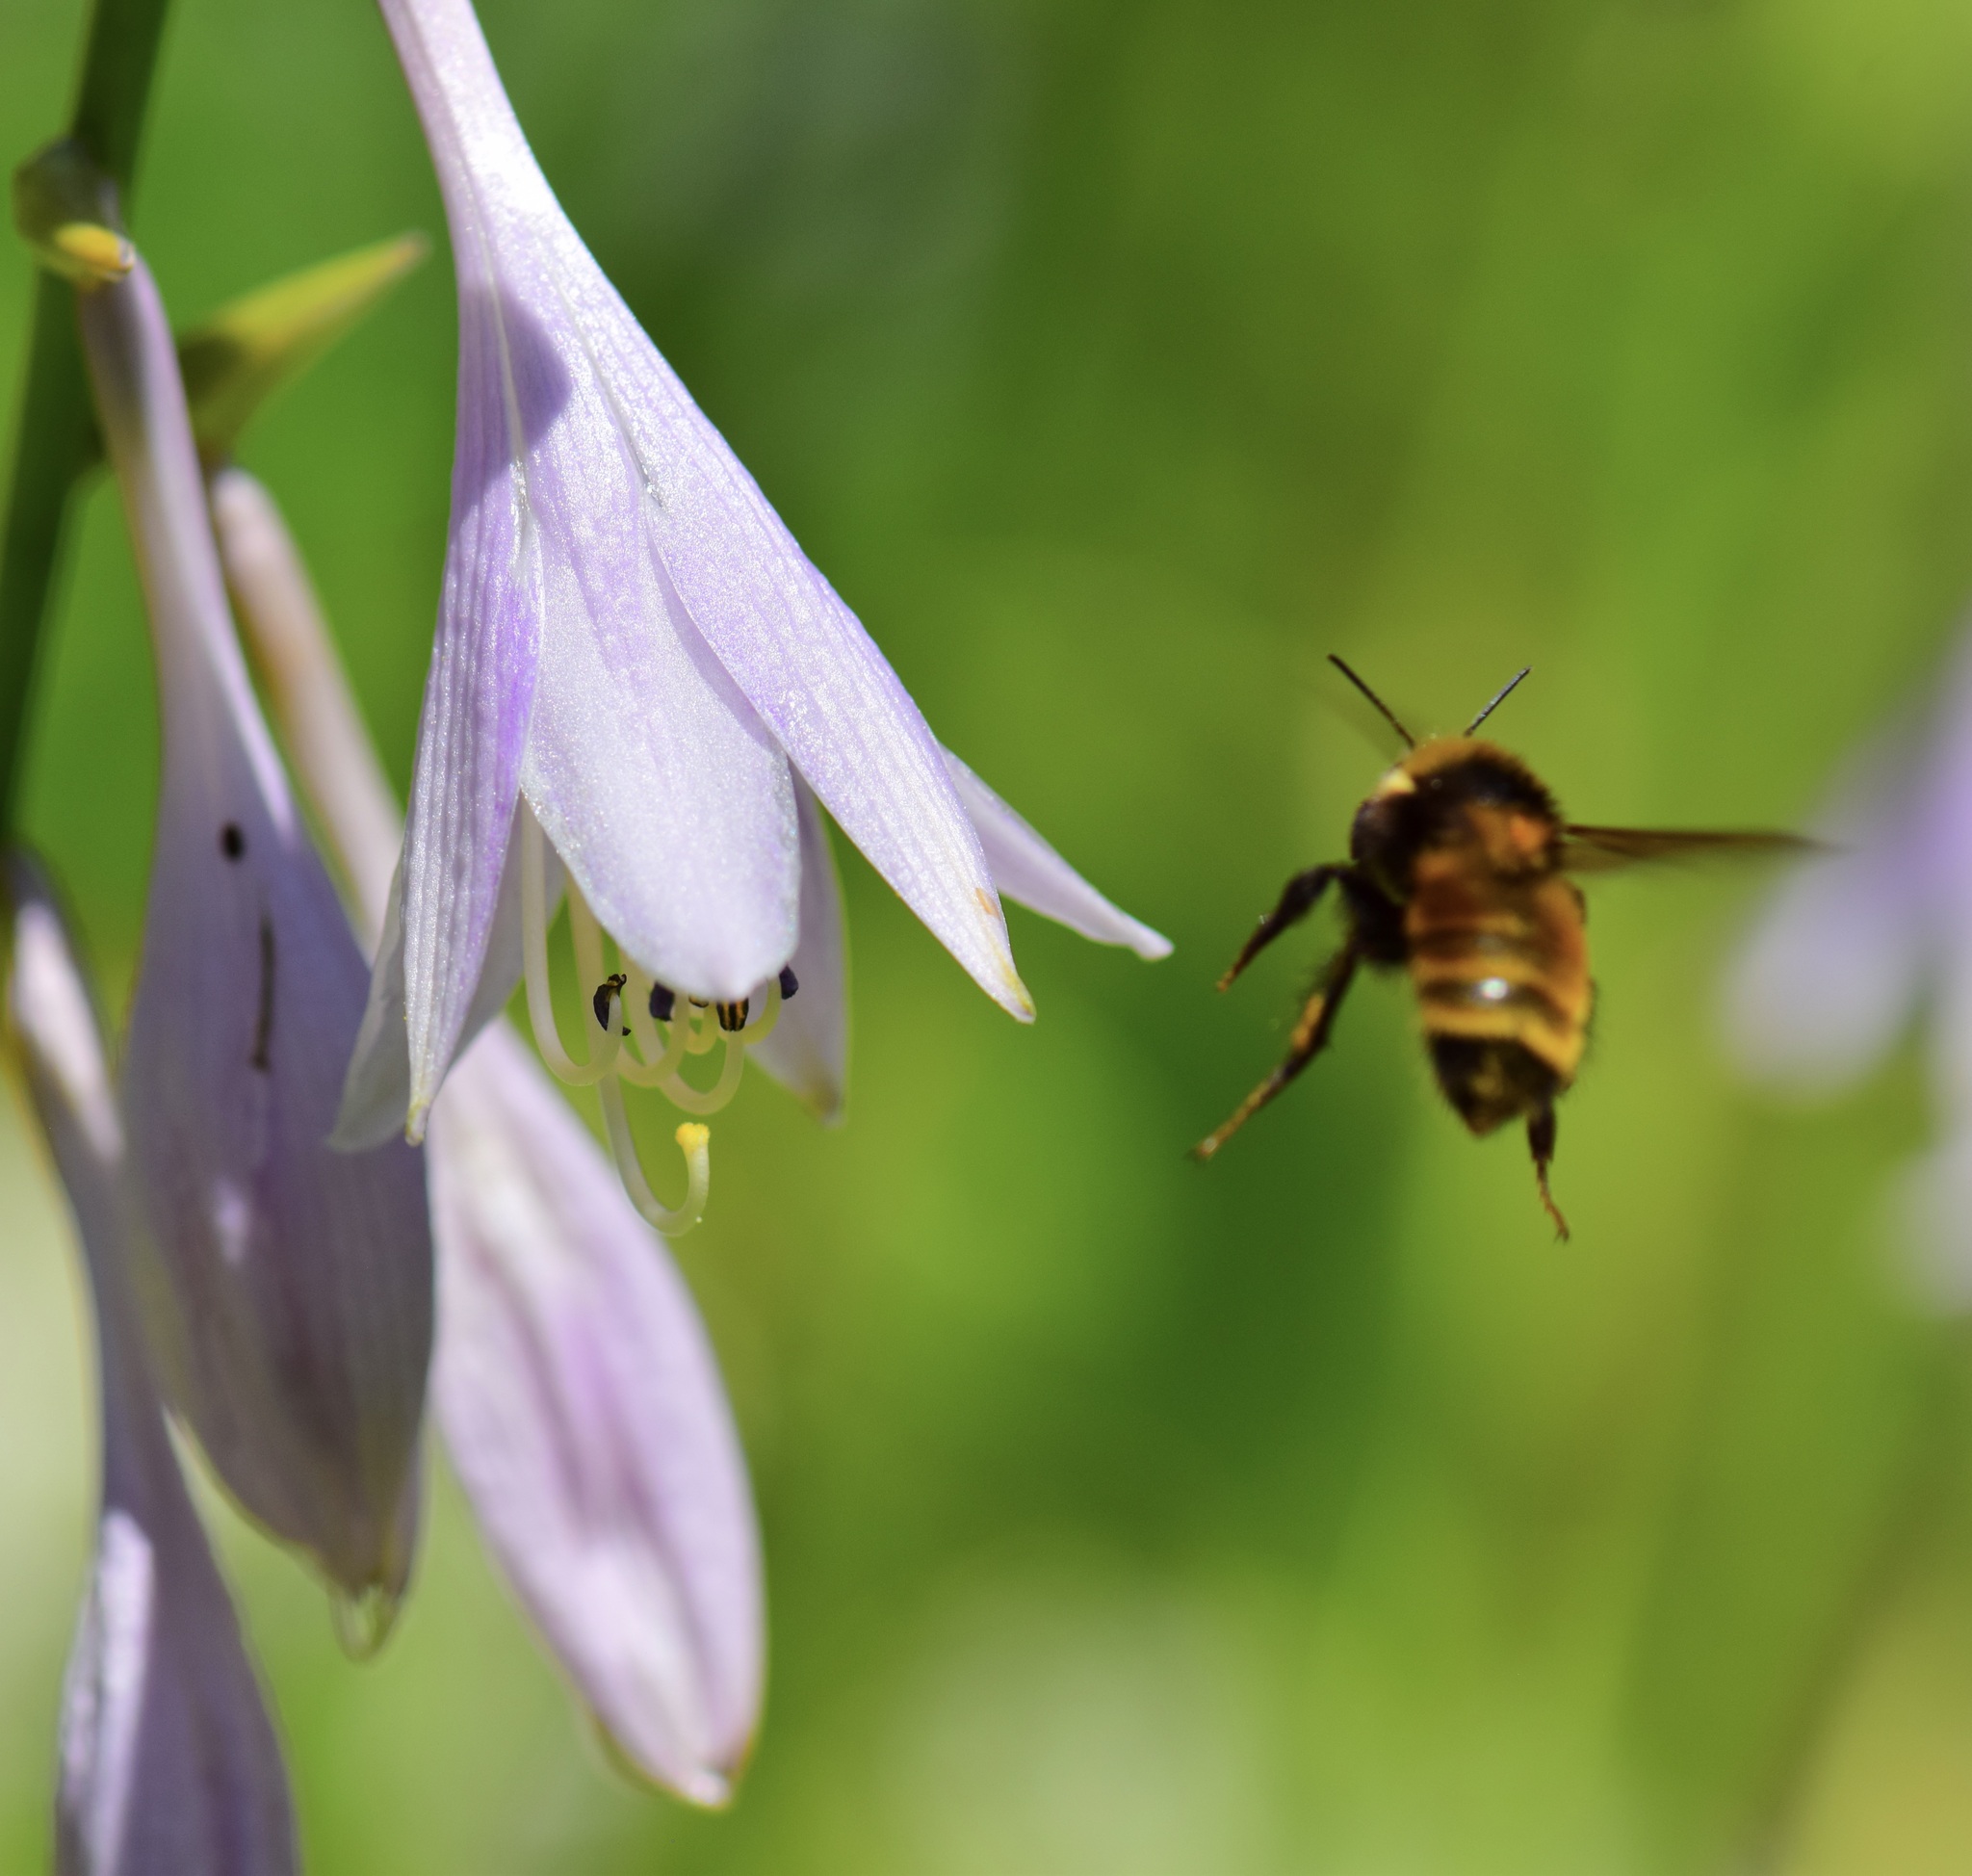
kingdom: Animalia
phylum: Arthropoda
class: Insecta
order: Hymenoptera
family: Apidae
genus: Bombus
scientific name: Bombus borealis
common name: Northern amber bumble bee
